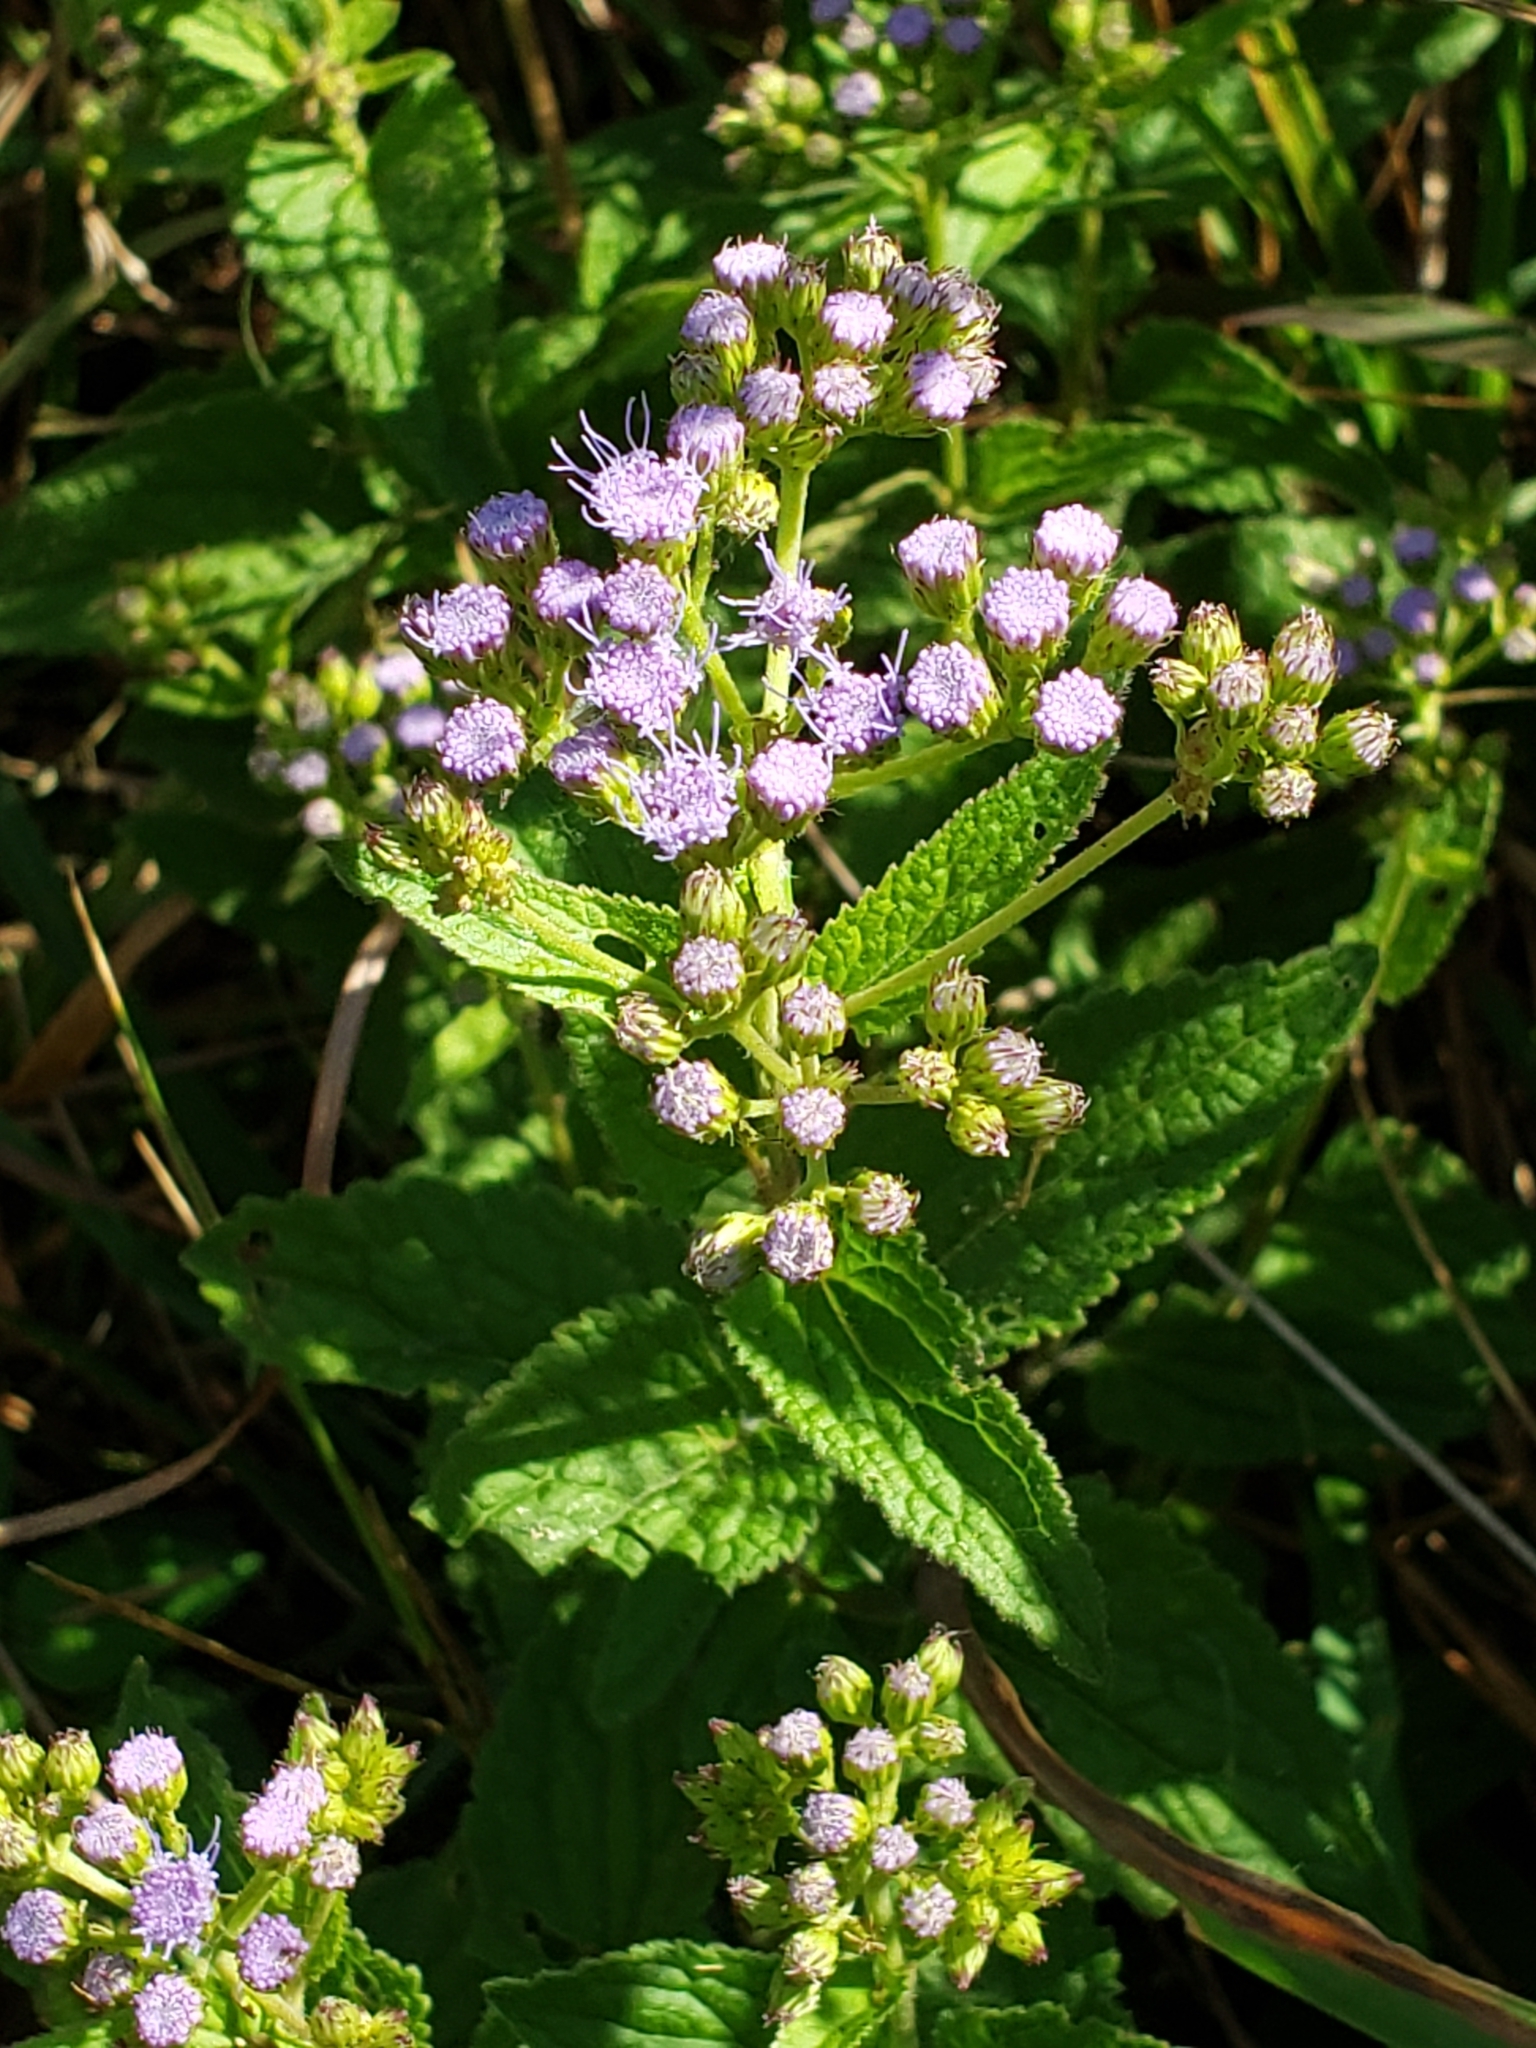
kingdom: Plantae
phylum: Tracheophyta
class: Magnoliopsida
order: Asterales
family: Asteraceae
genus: Conoclinium
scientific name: Conoclinium coelestinum
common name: Blue mistflower
